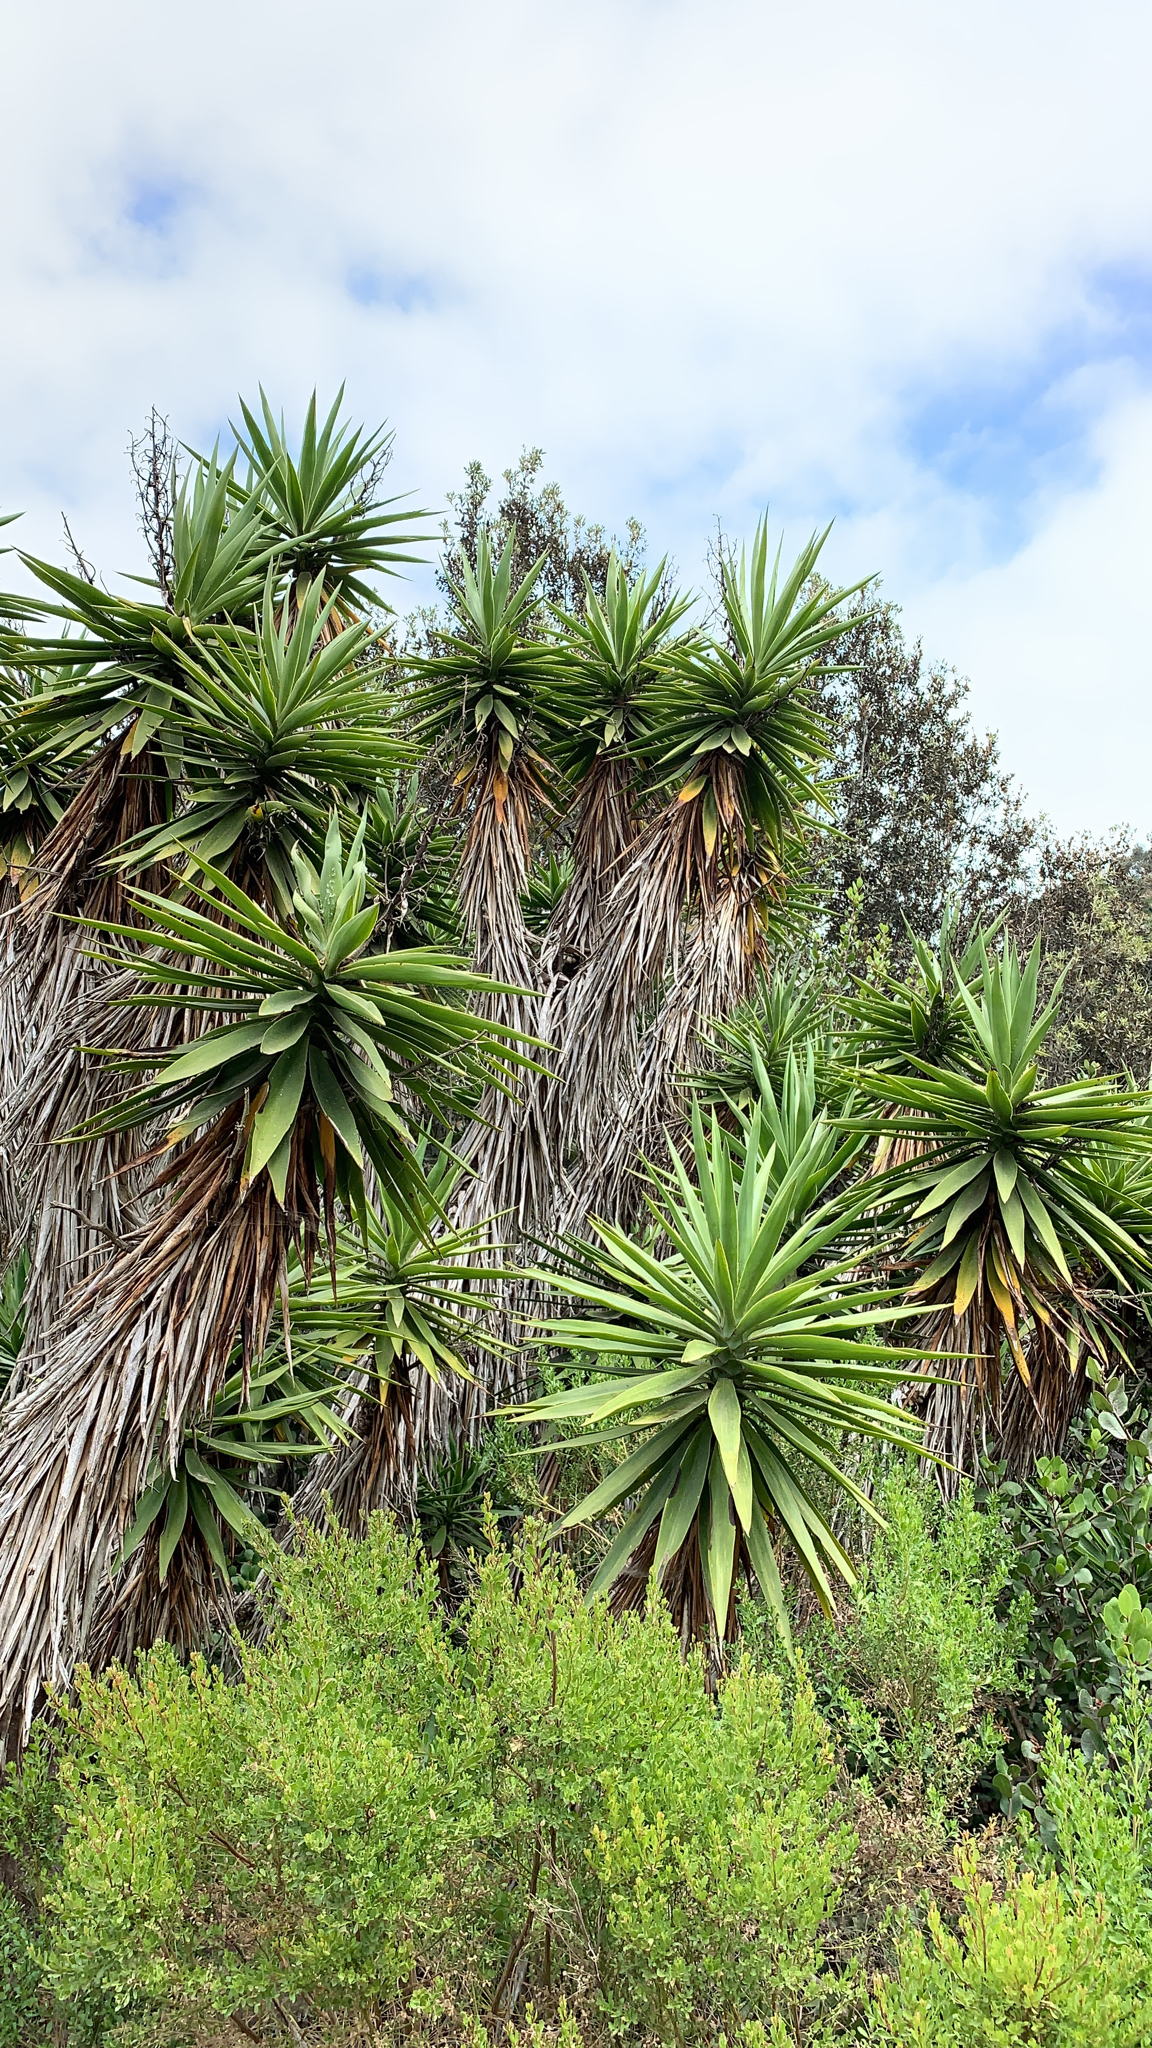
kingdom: Plantae
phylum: Tracheophyta
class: Liliopsida
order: Asparagales
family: Asparagaceae
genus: Yucca
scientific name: Yucca gigantea
